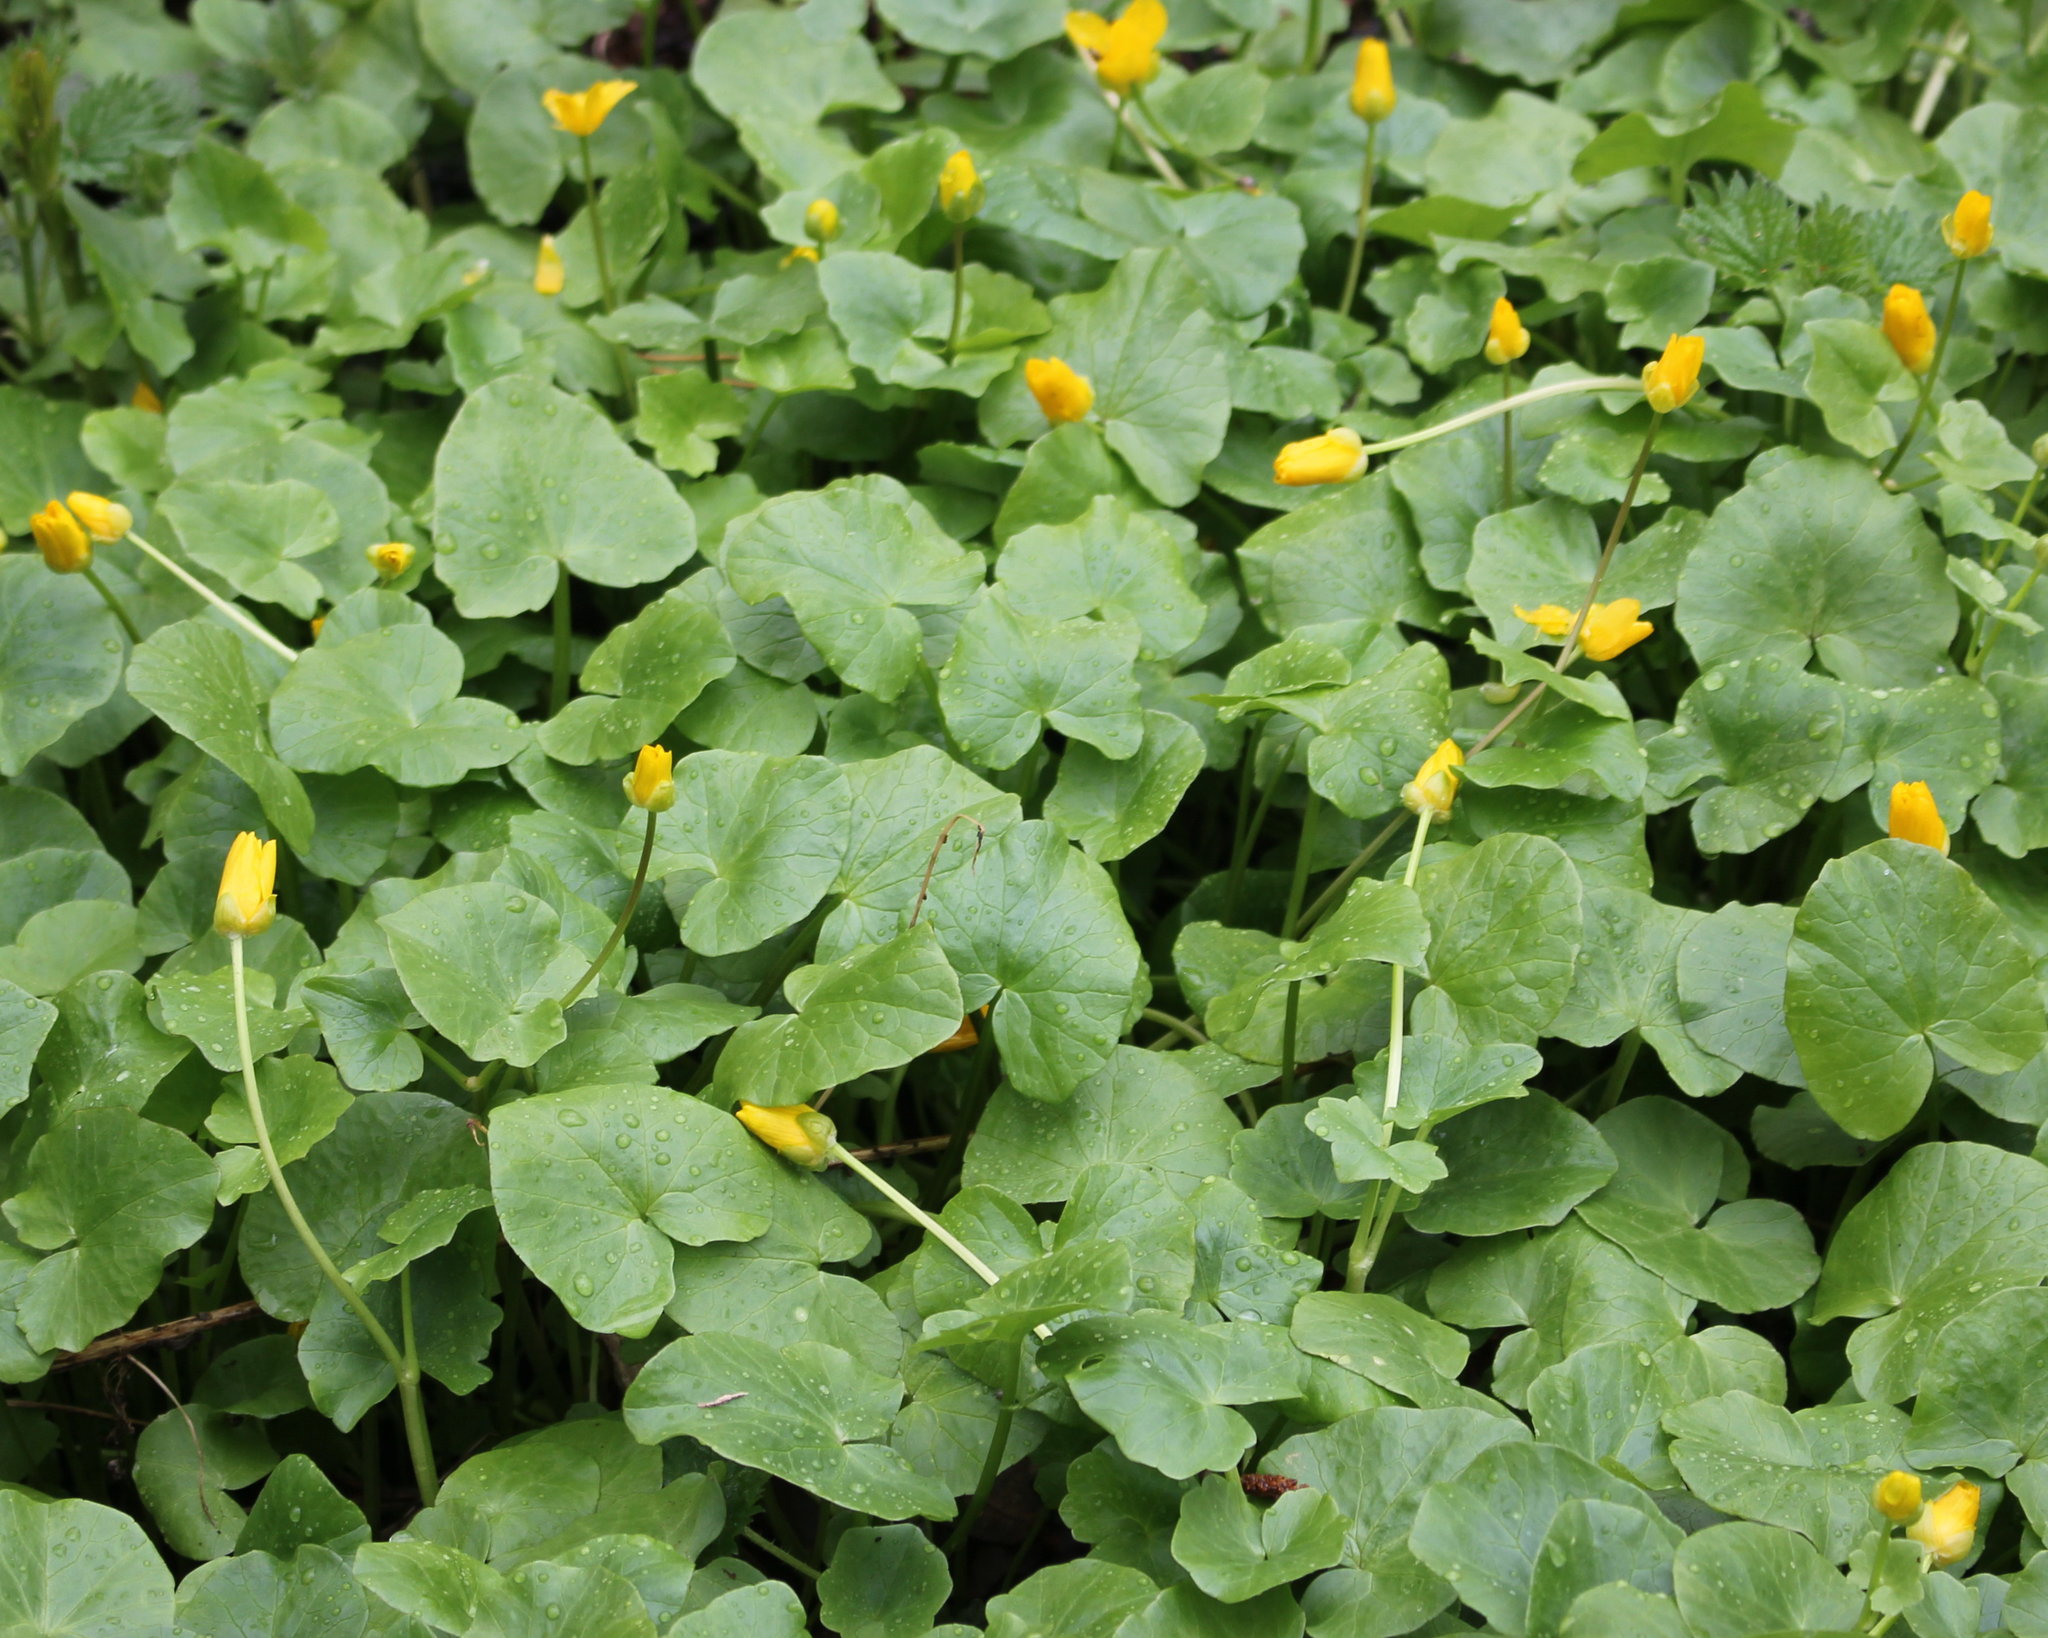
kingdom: Plantae
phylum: Tracheophyta
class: Magnoliopsida
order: Ranunculales
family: Ranunculaceae
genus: Ficaria
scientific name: Ficaria verna
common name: Lesser celandine
